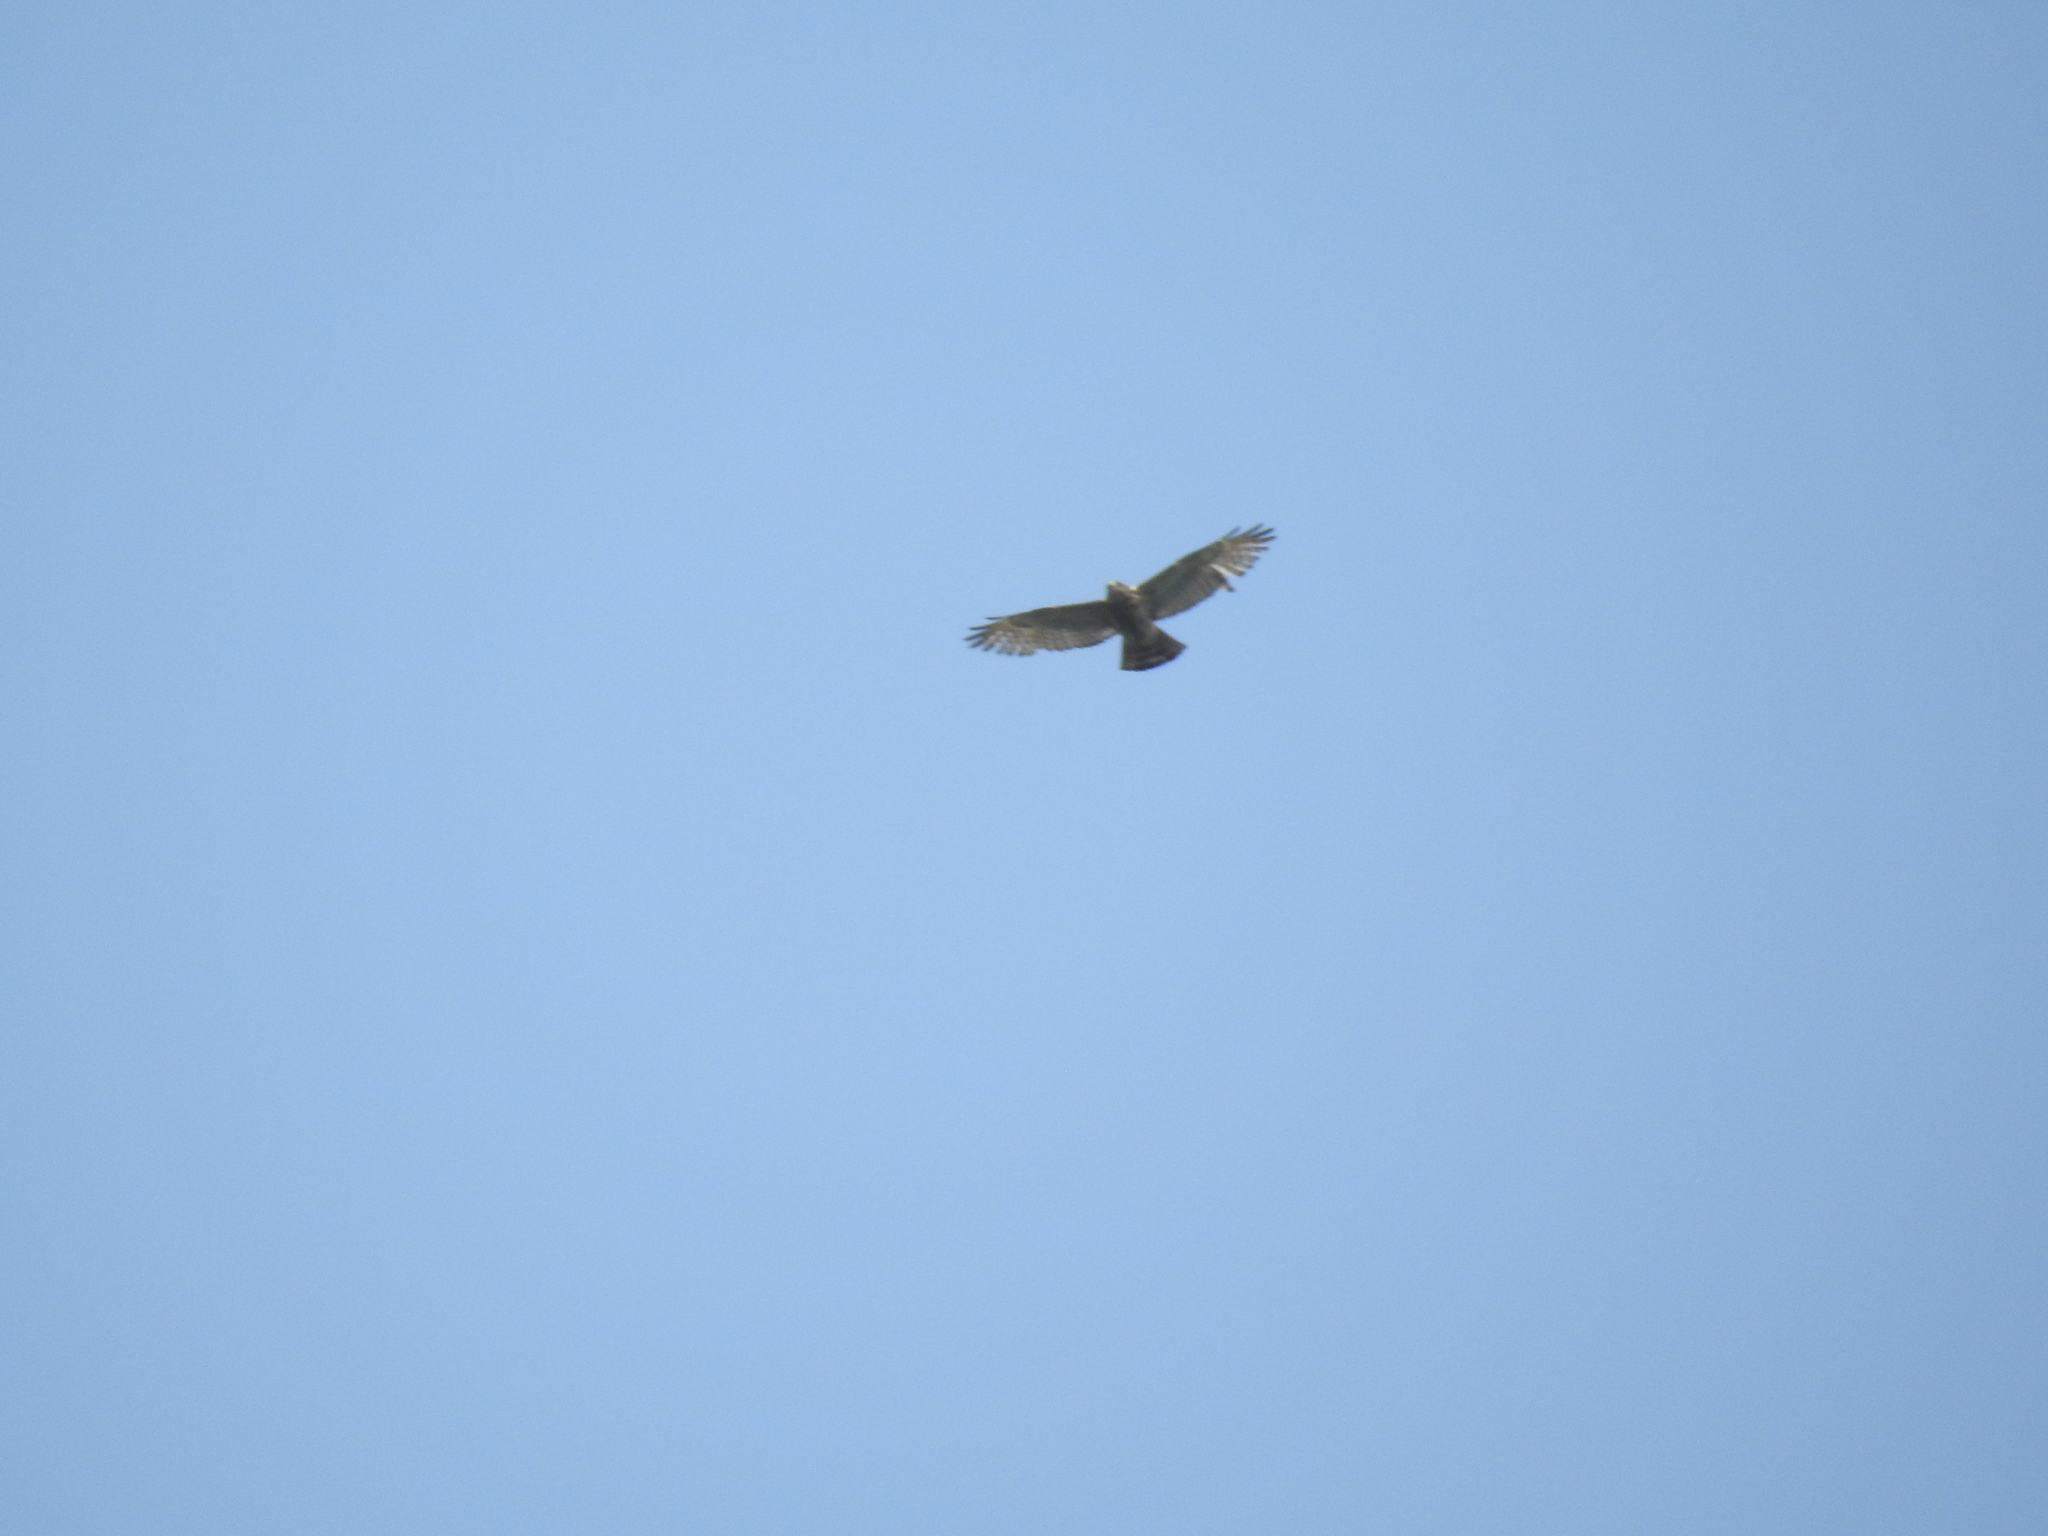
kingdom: Animalia
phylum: Chordata
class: Aves
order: Accipitriformes
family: Accipitridae
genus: Buteo
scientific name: Buteo nitidus
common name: Grey-lined hawk
